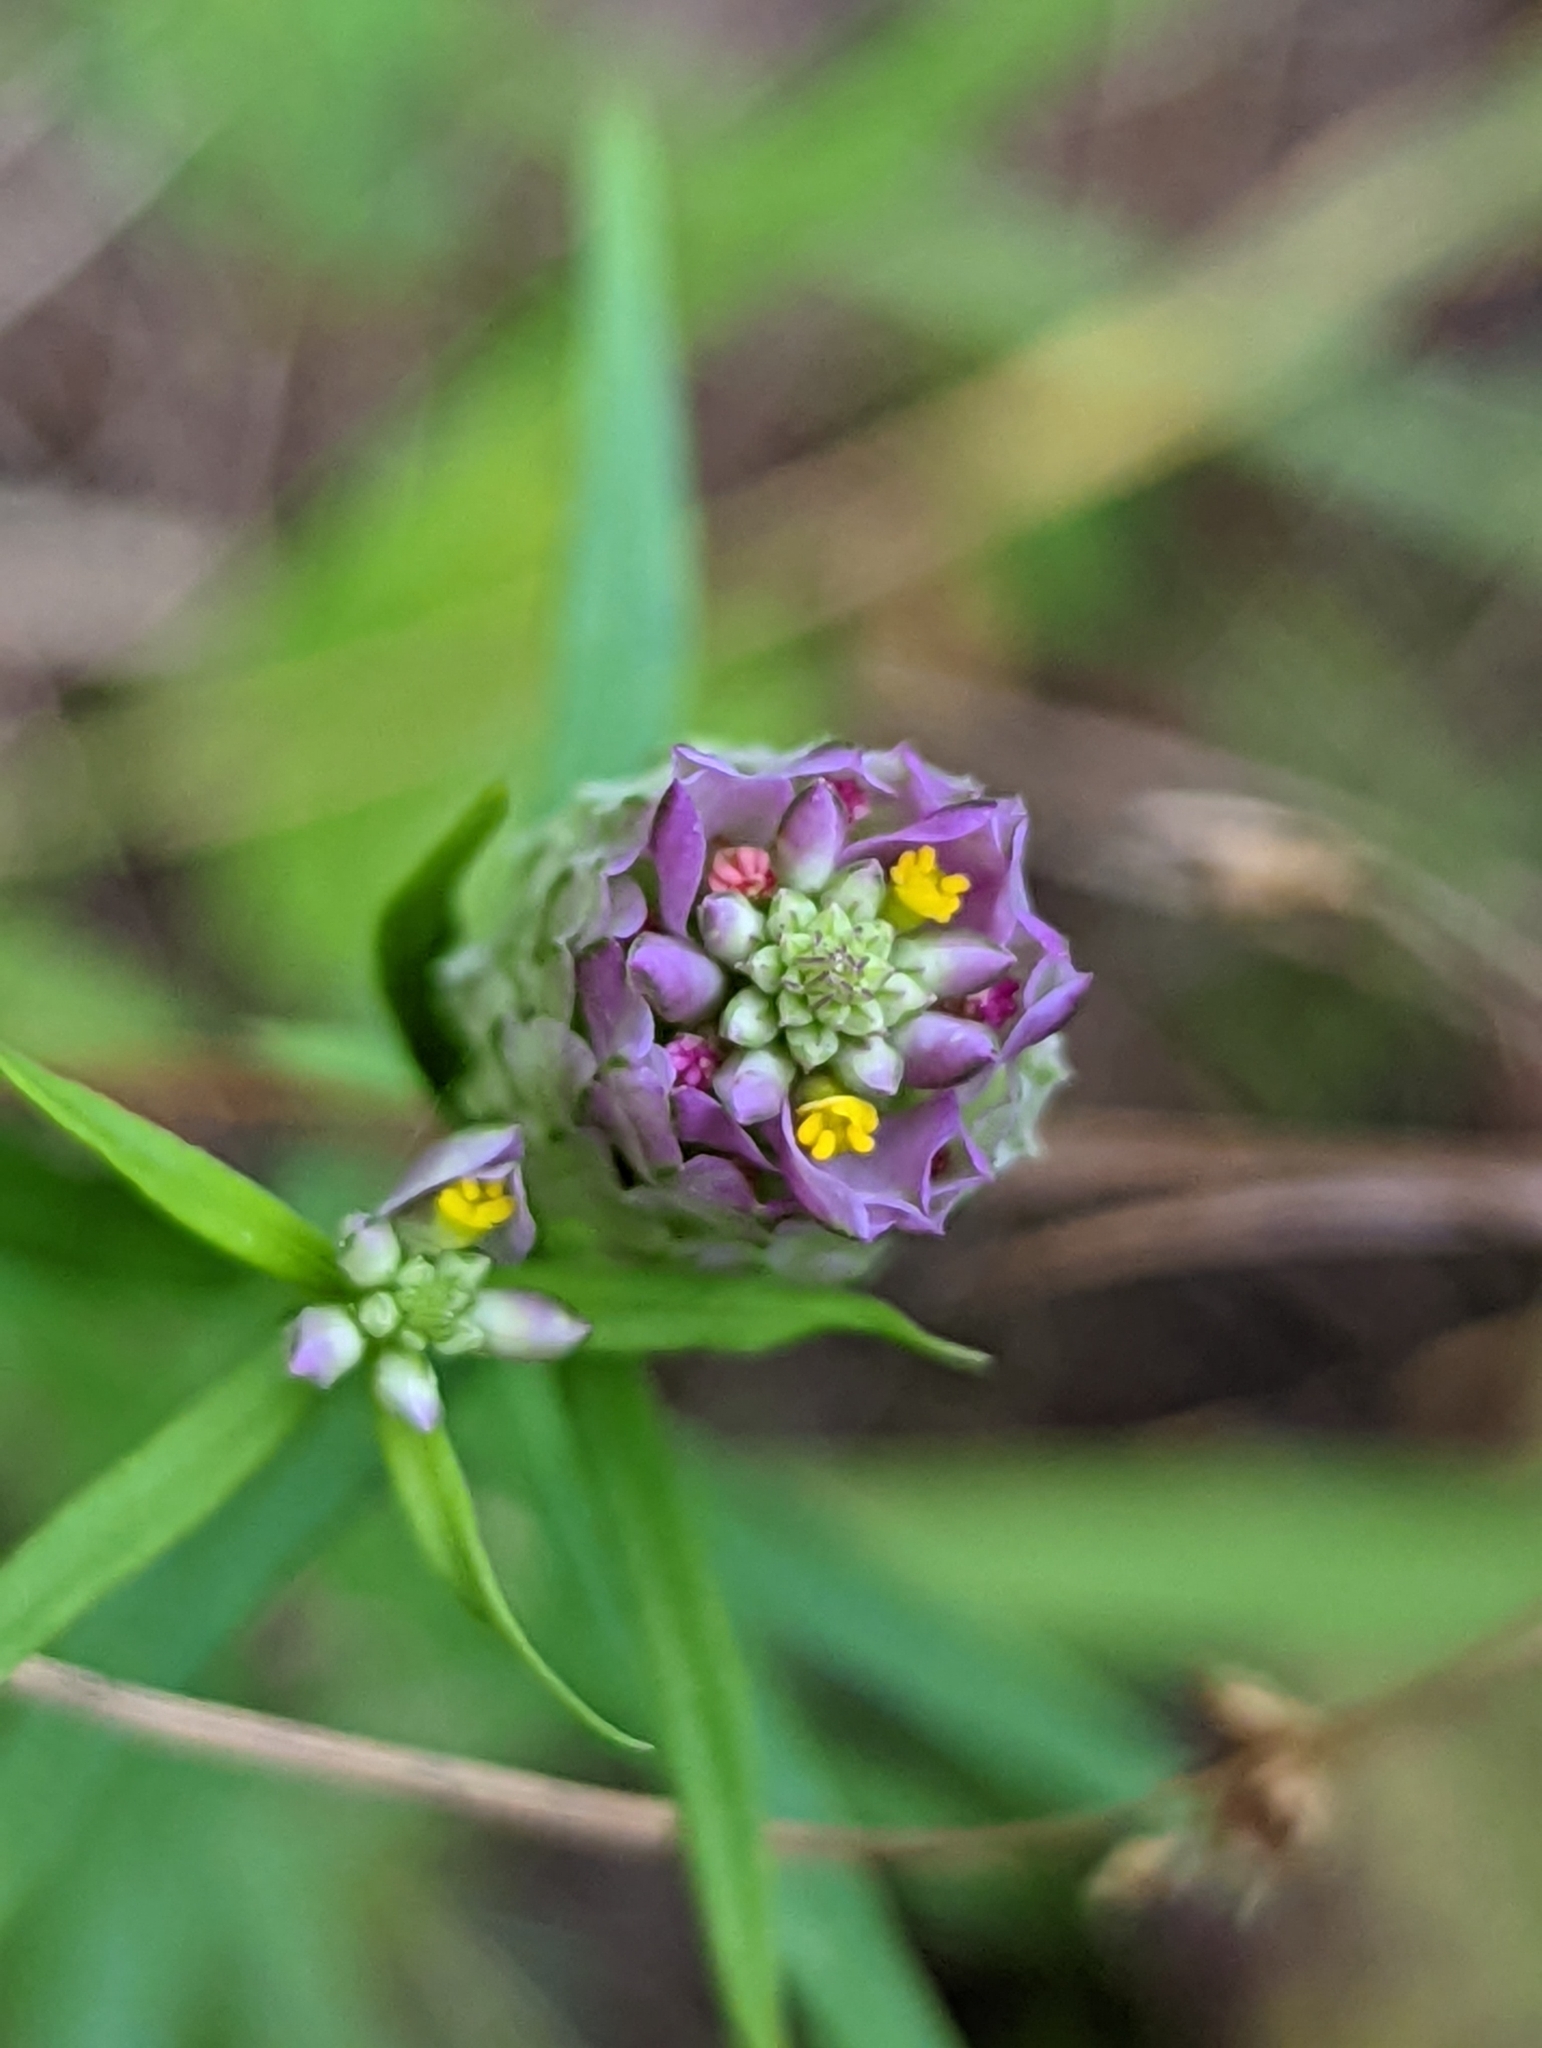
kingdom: Plantae
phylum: Tracheophyta
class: Magnoliopsida
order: Fabales
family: Polygalaceae
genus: Polygala
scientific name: Polygala sanguinea
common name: Blood milkwort
